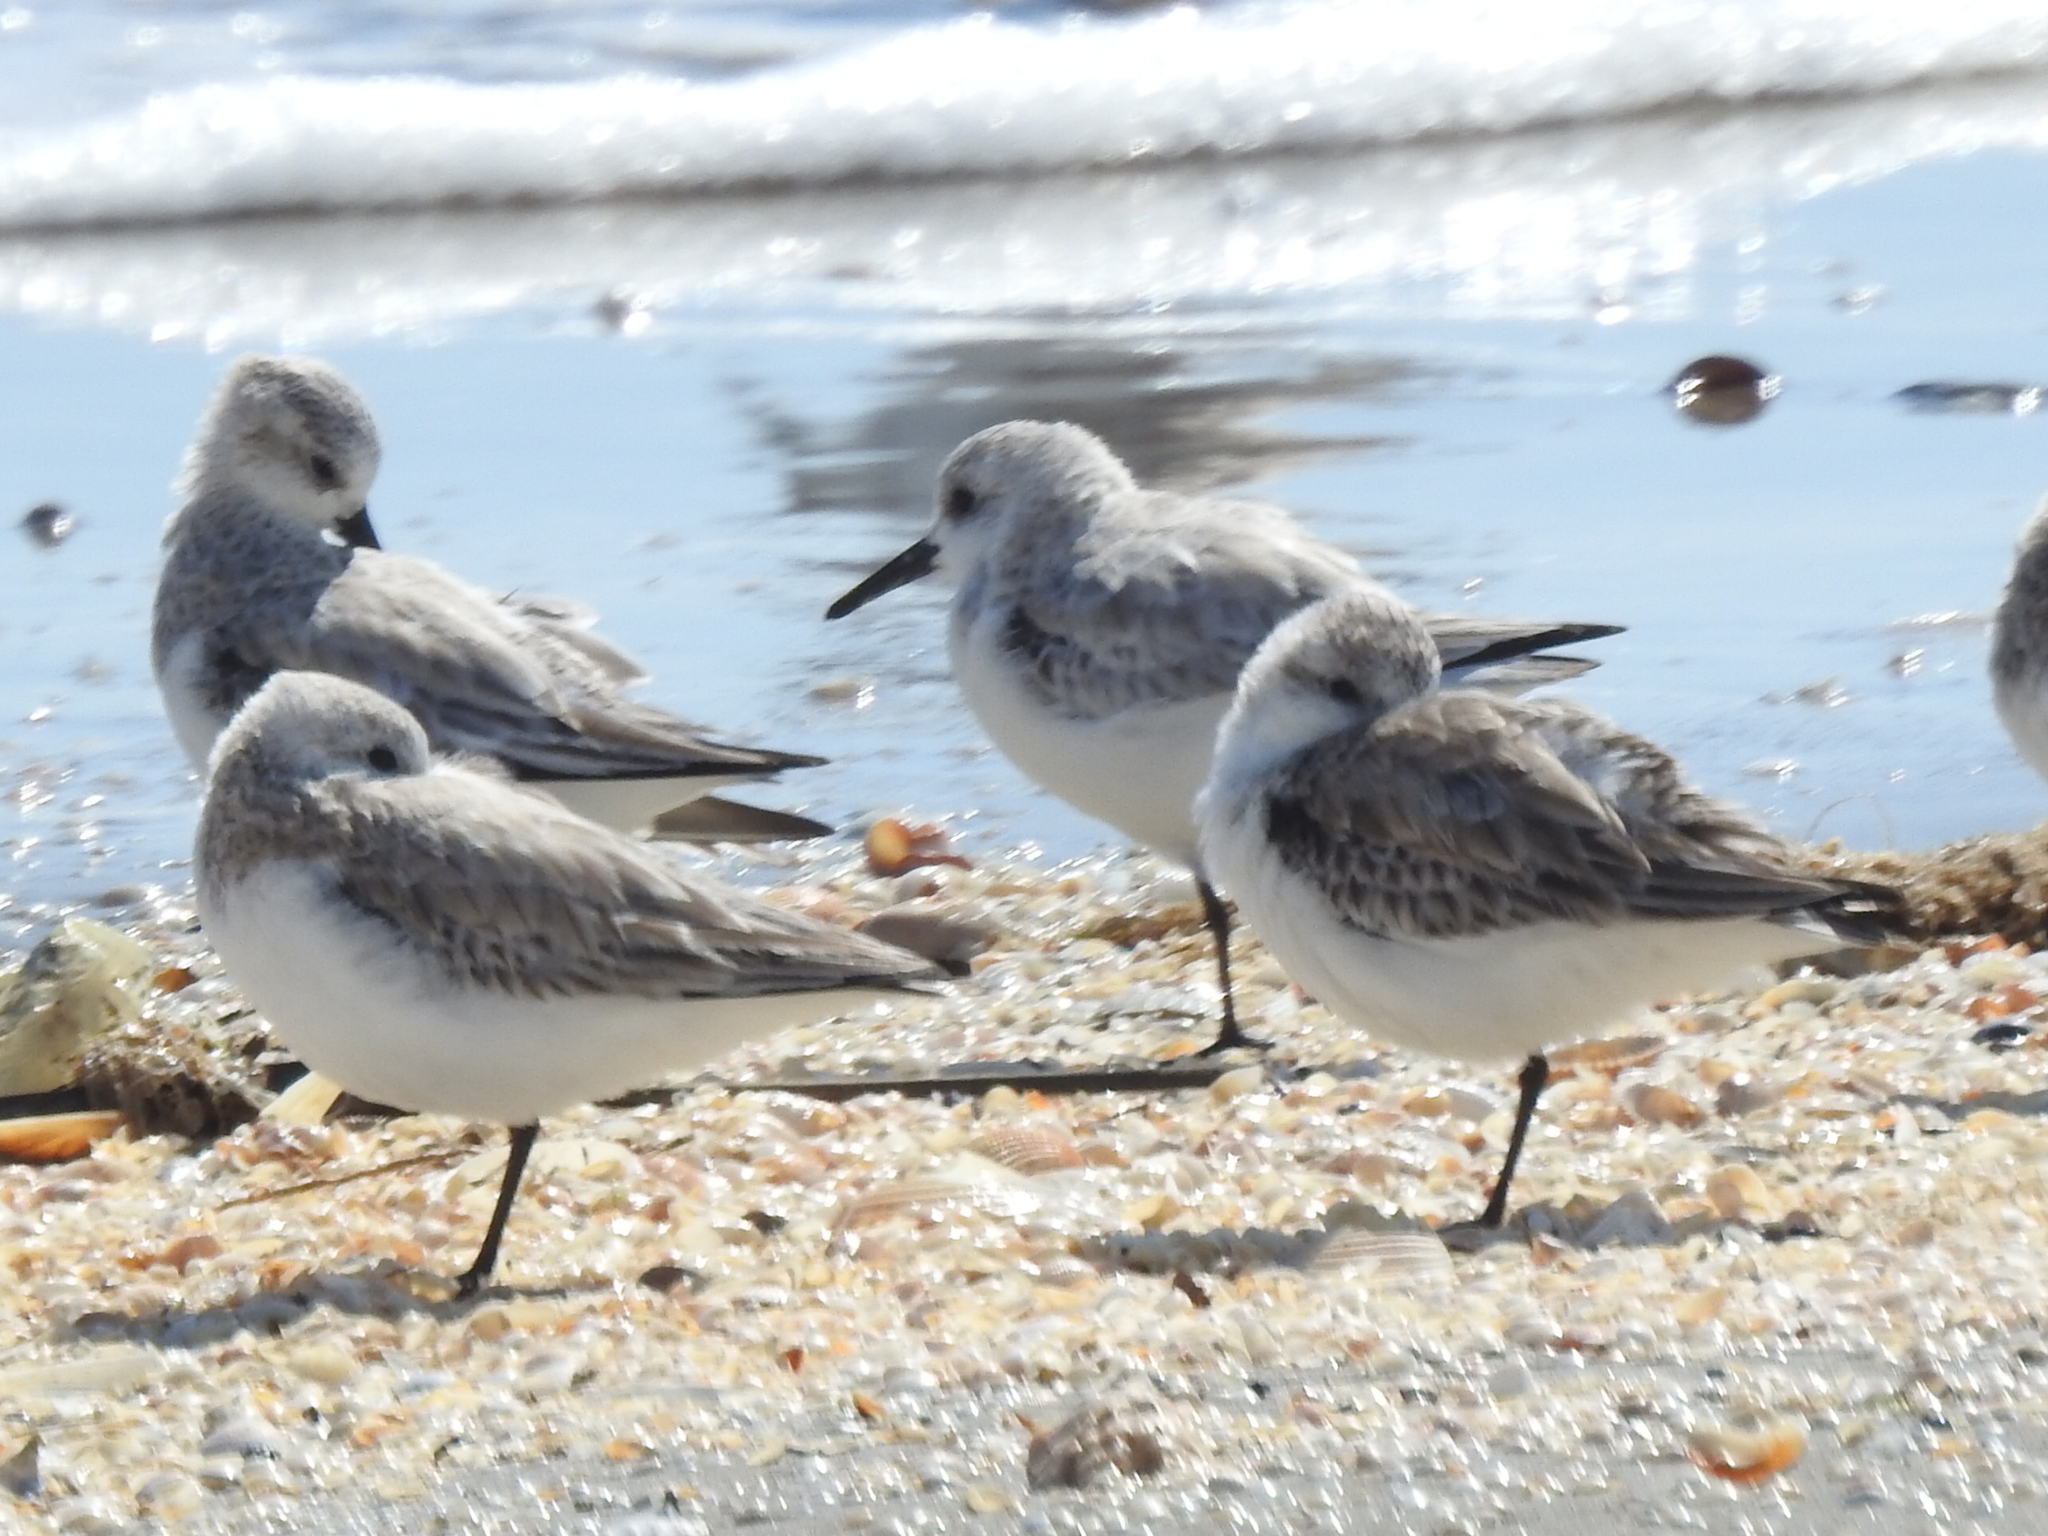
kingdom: Animalia
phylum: Chordata
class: Aves
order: Charadriiformes
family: Scolopacidae
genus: Calidris
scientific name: Calidris alba
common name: Sanderling
